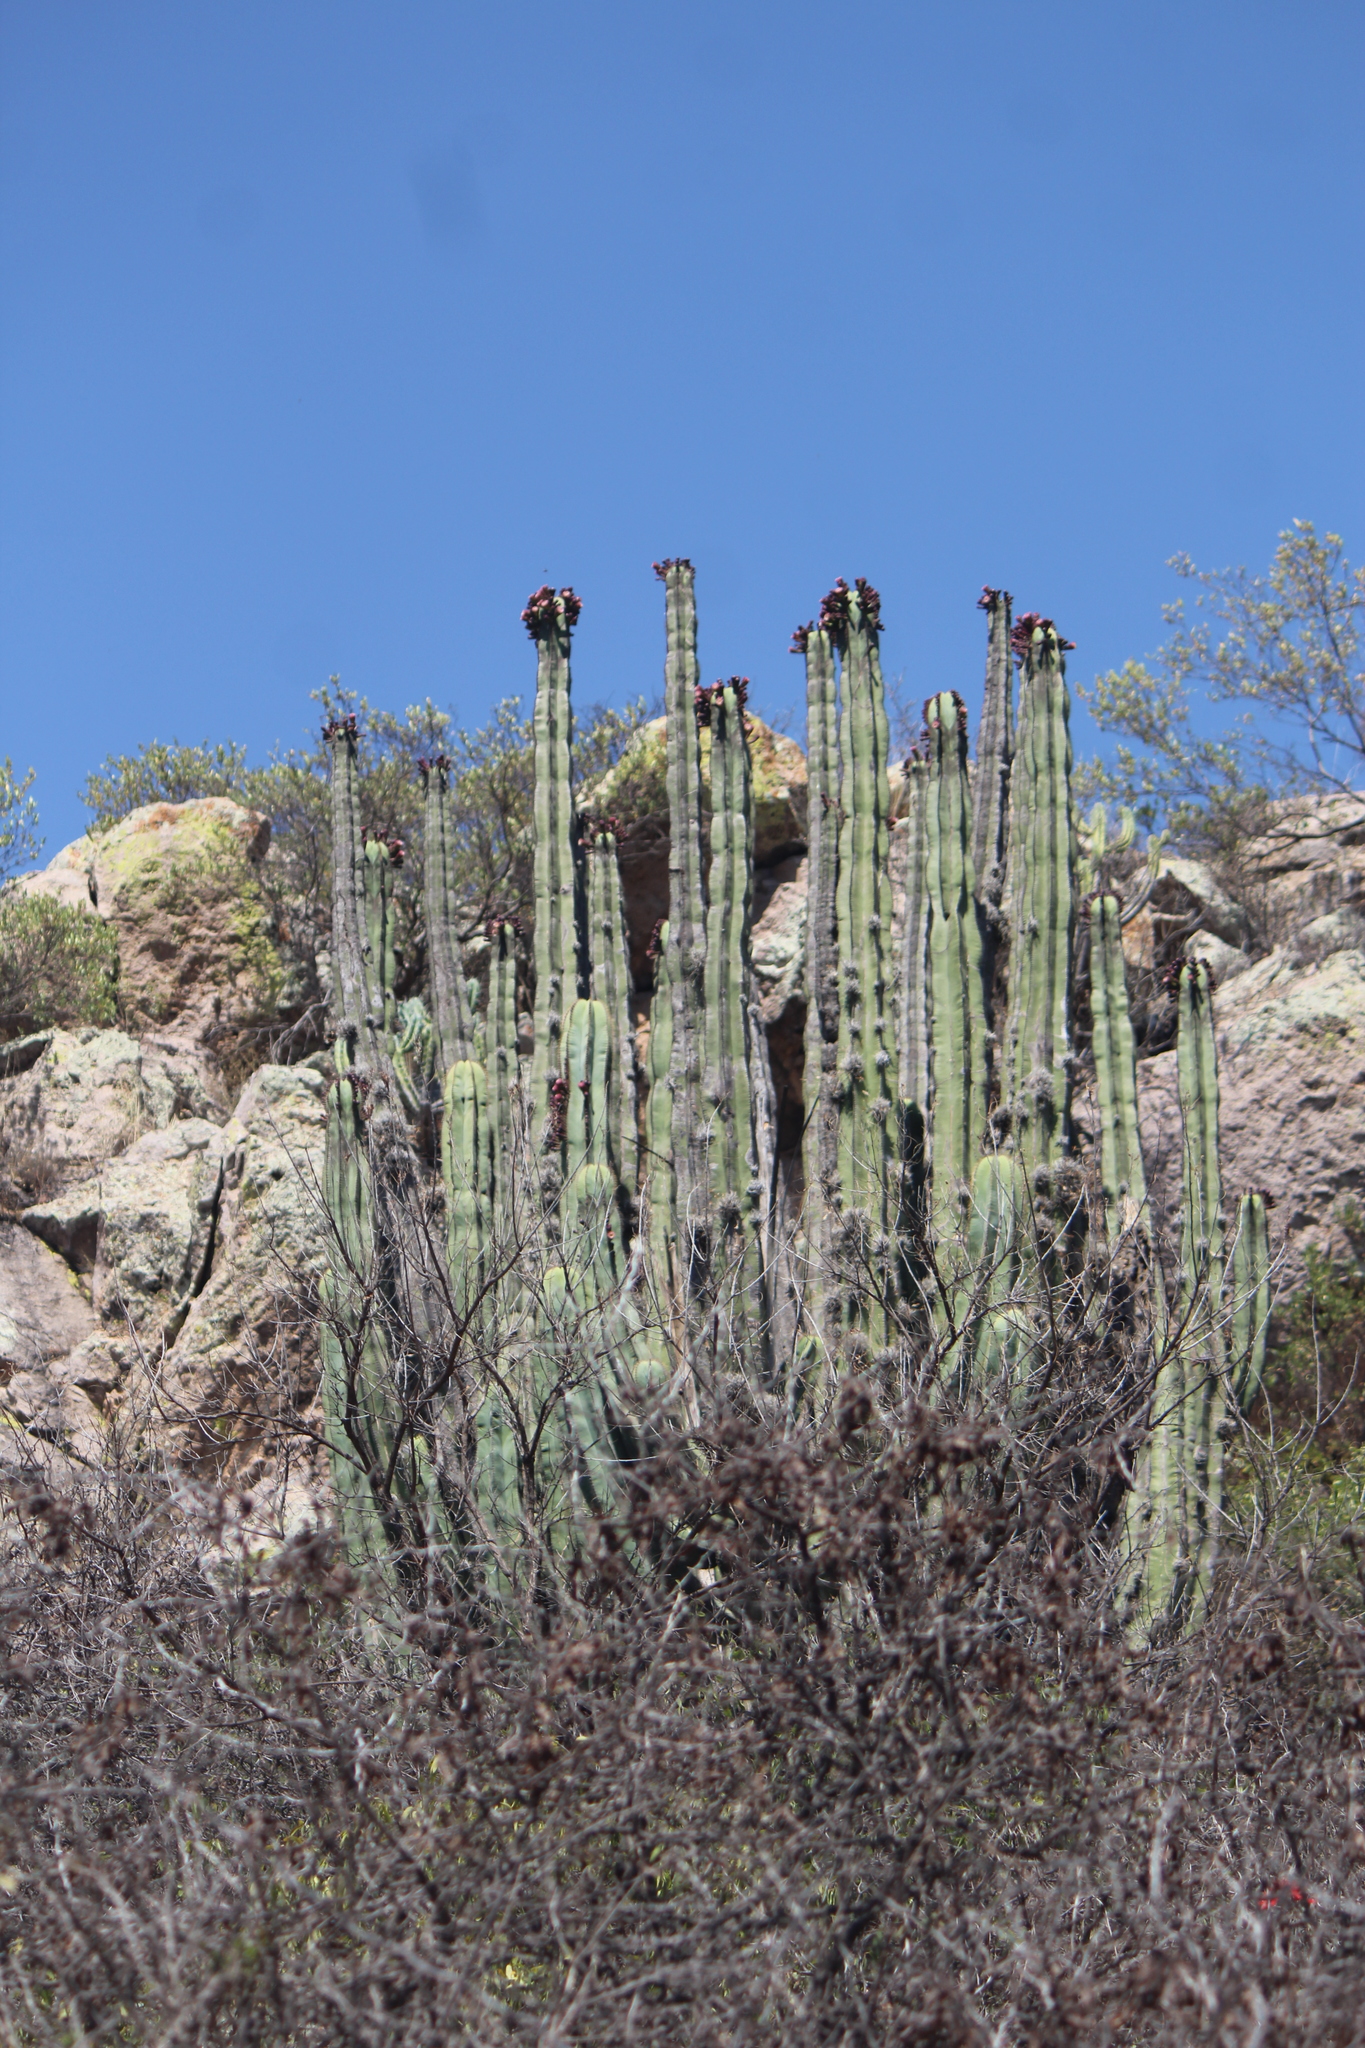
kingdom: Plantae
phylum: Tracheophyta
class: Magnoliopsida
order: Caryophyllales
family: Cactaceae
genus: Stenocereus
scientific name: Stenocereus dumortieri
